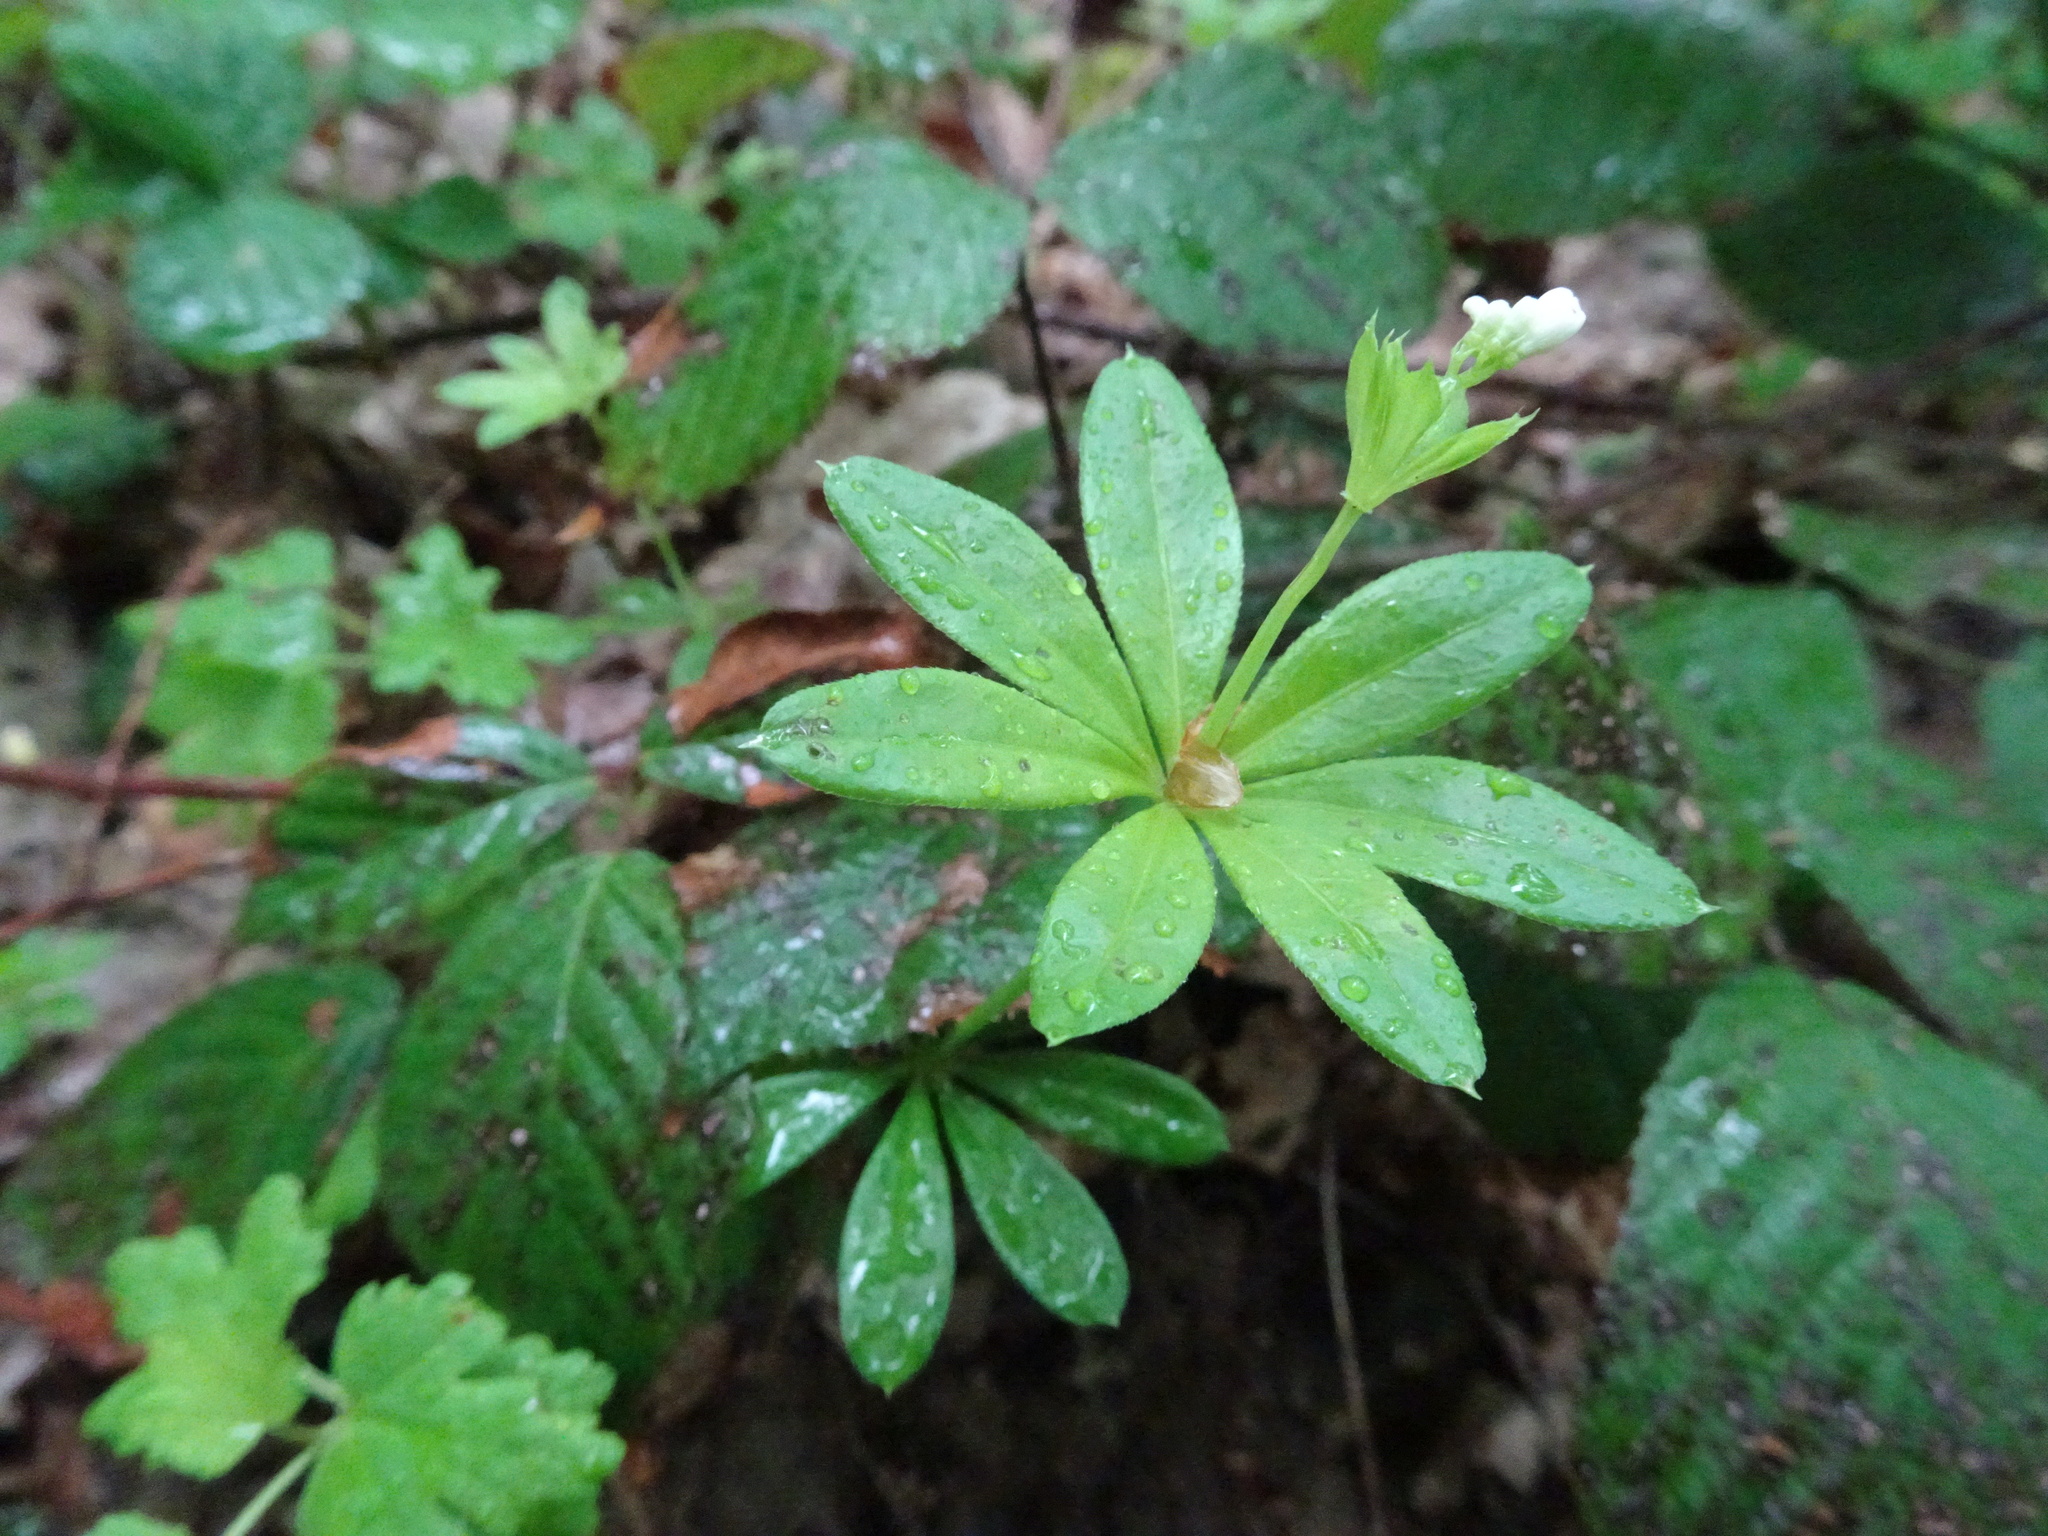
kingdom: Plantae
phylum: Tracheophyta
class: Magnoliopsida
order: Gentianales
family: Rubiaceae
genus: Galium
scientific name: Galium odoratum
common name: Sweet woodruff
